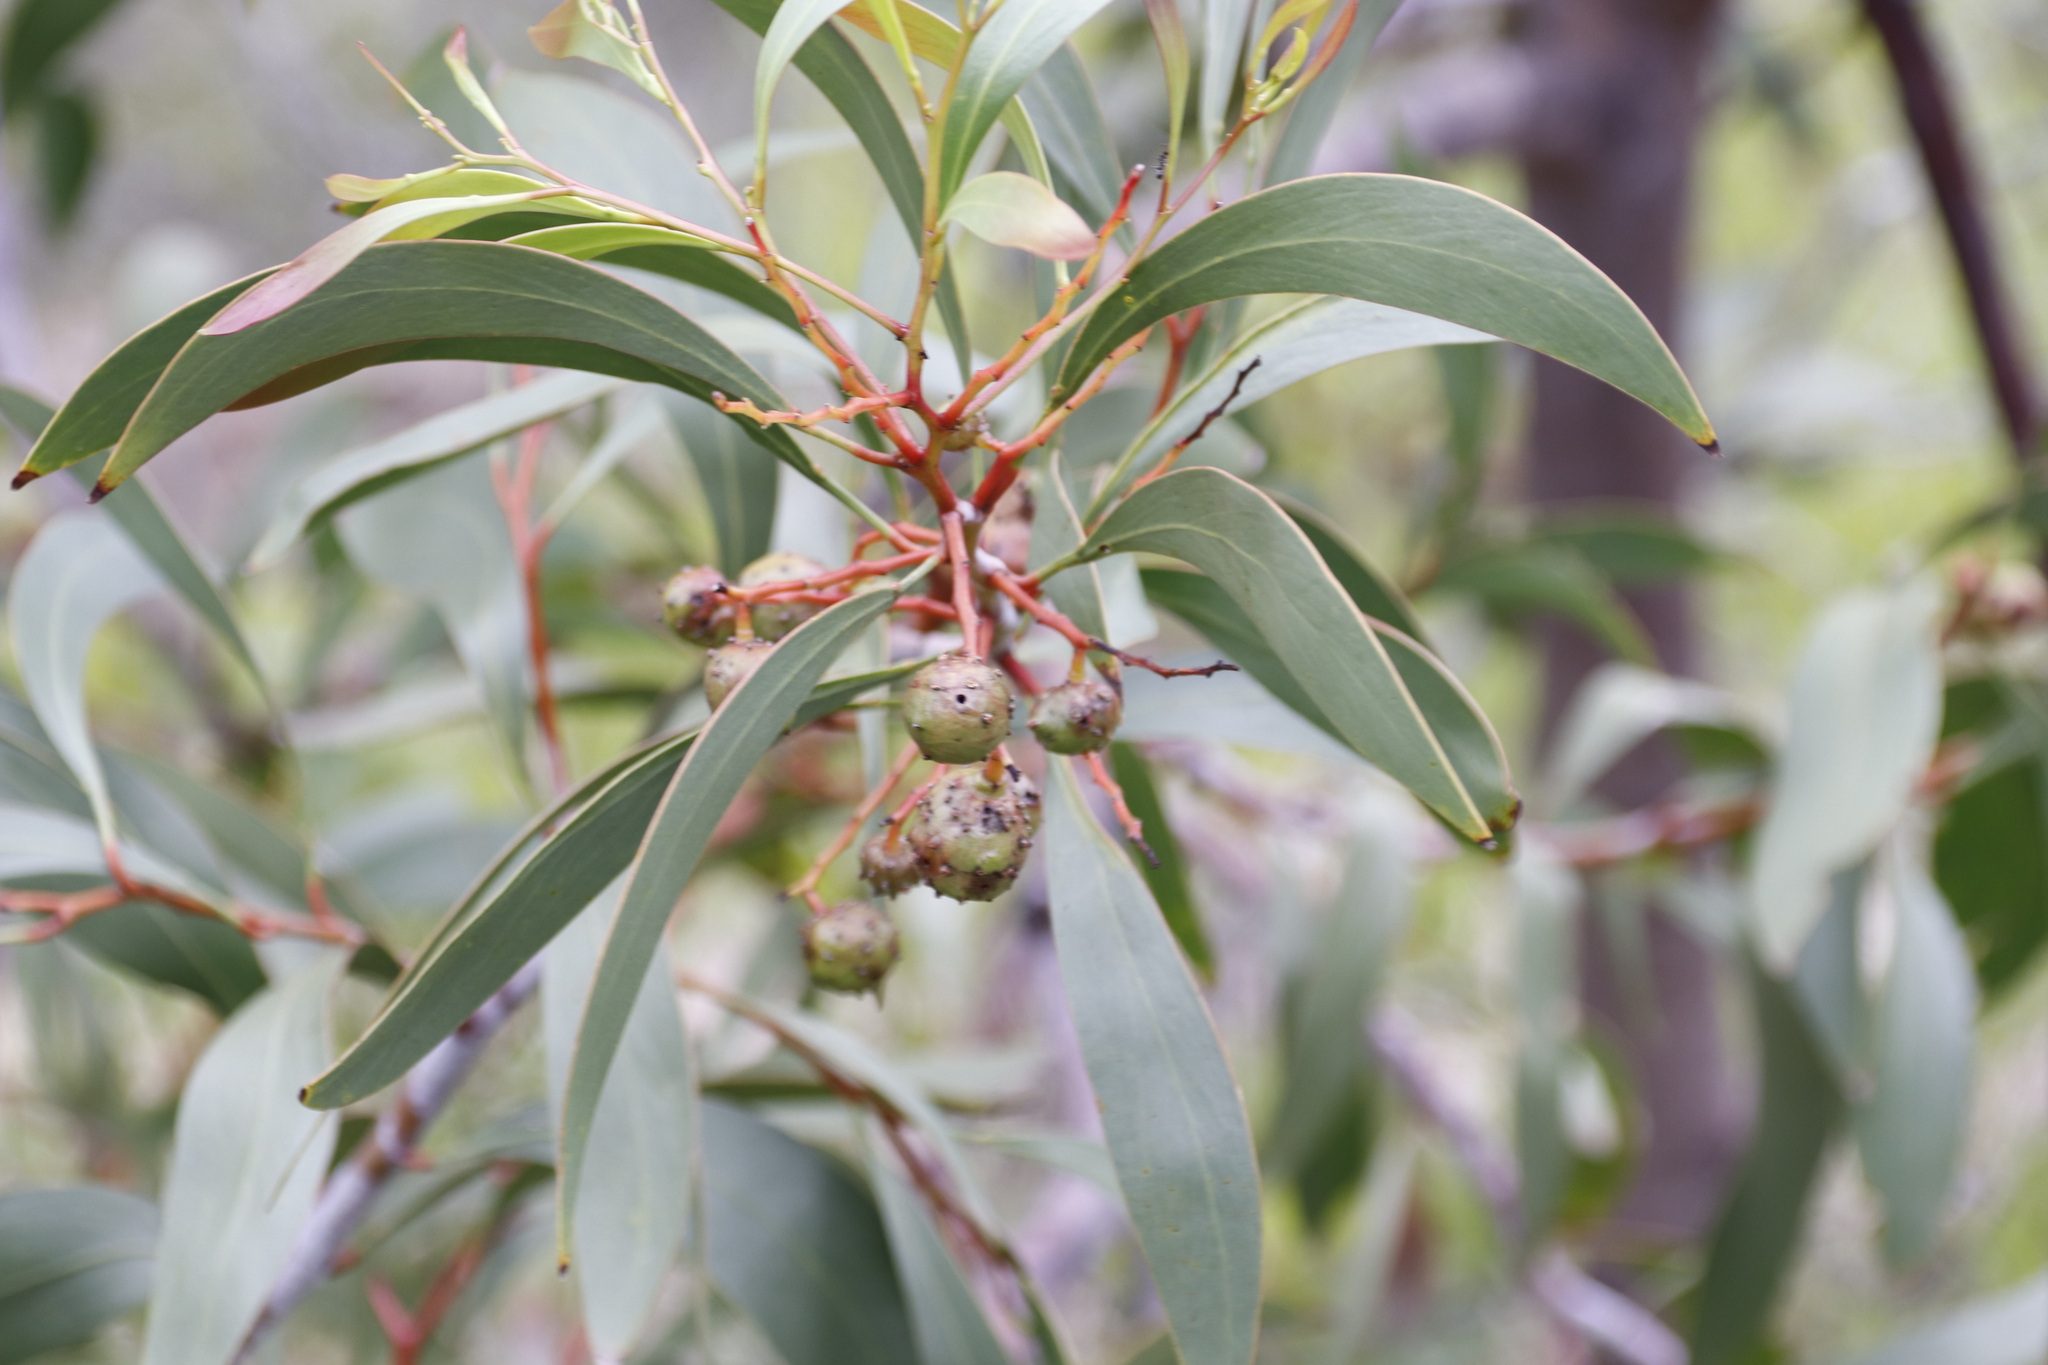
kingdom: Plantae
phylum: Tracheophyta
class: Magnoliopsida
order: Fabales
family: Fabaceae
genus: Acacia
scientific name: Acacia pycnantha
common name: Golden wattle
